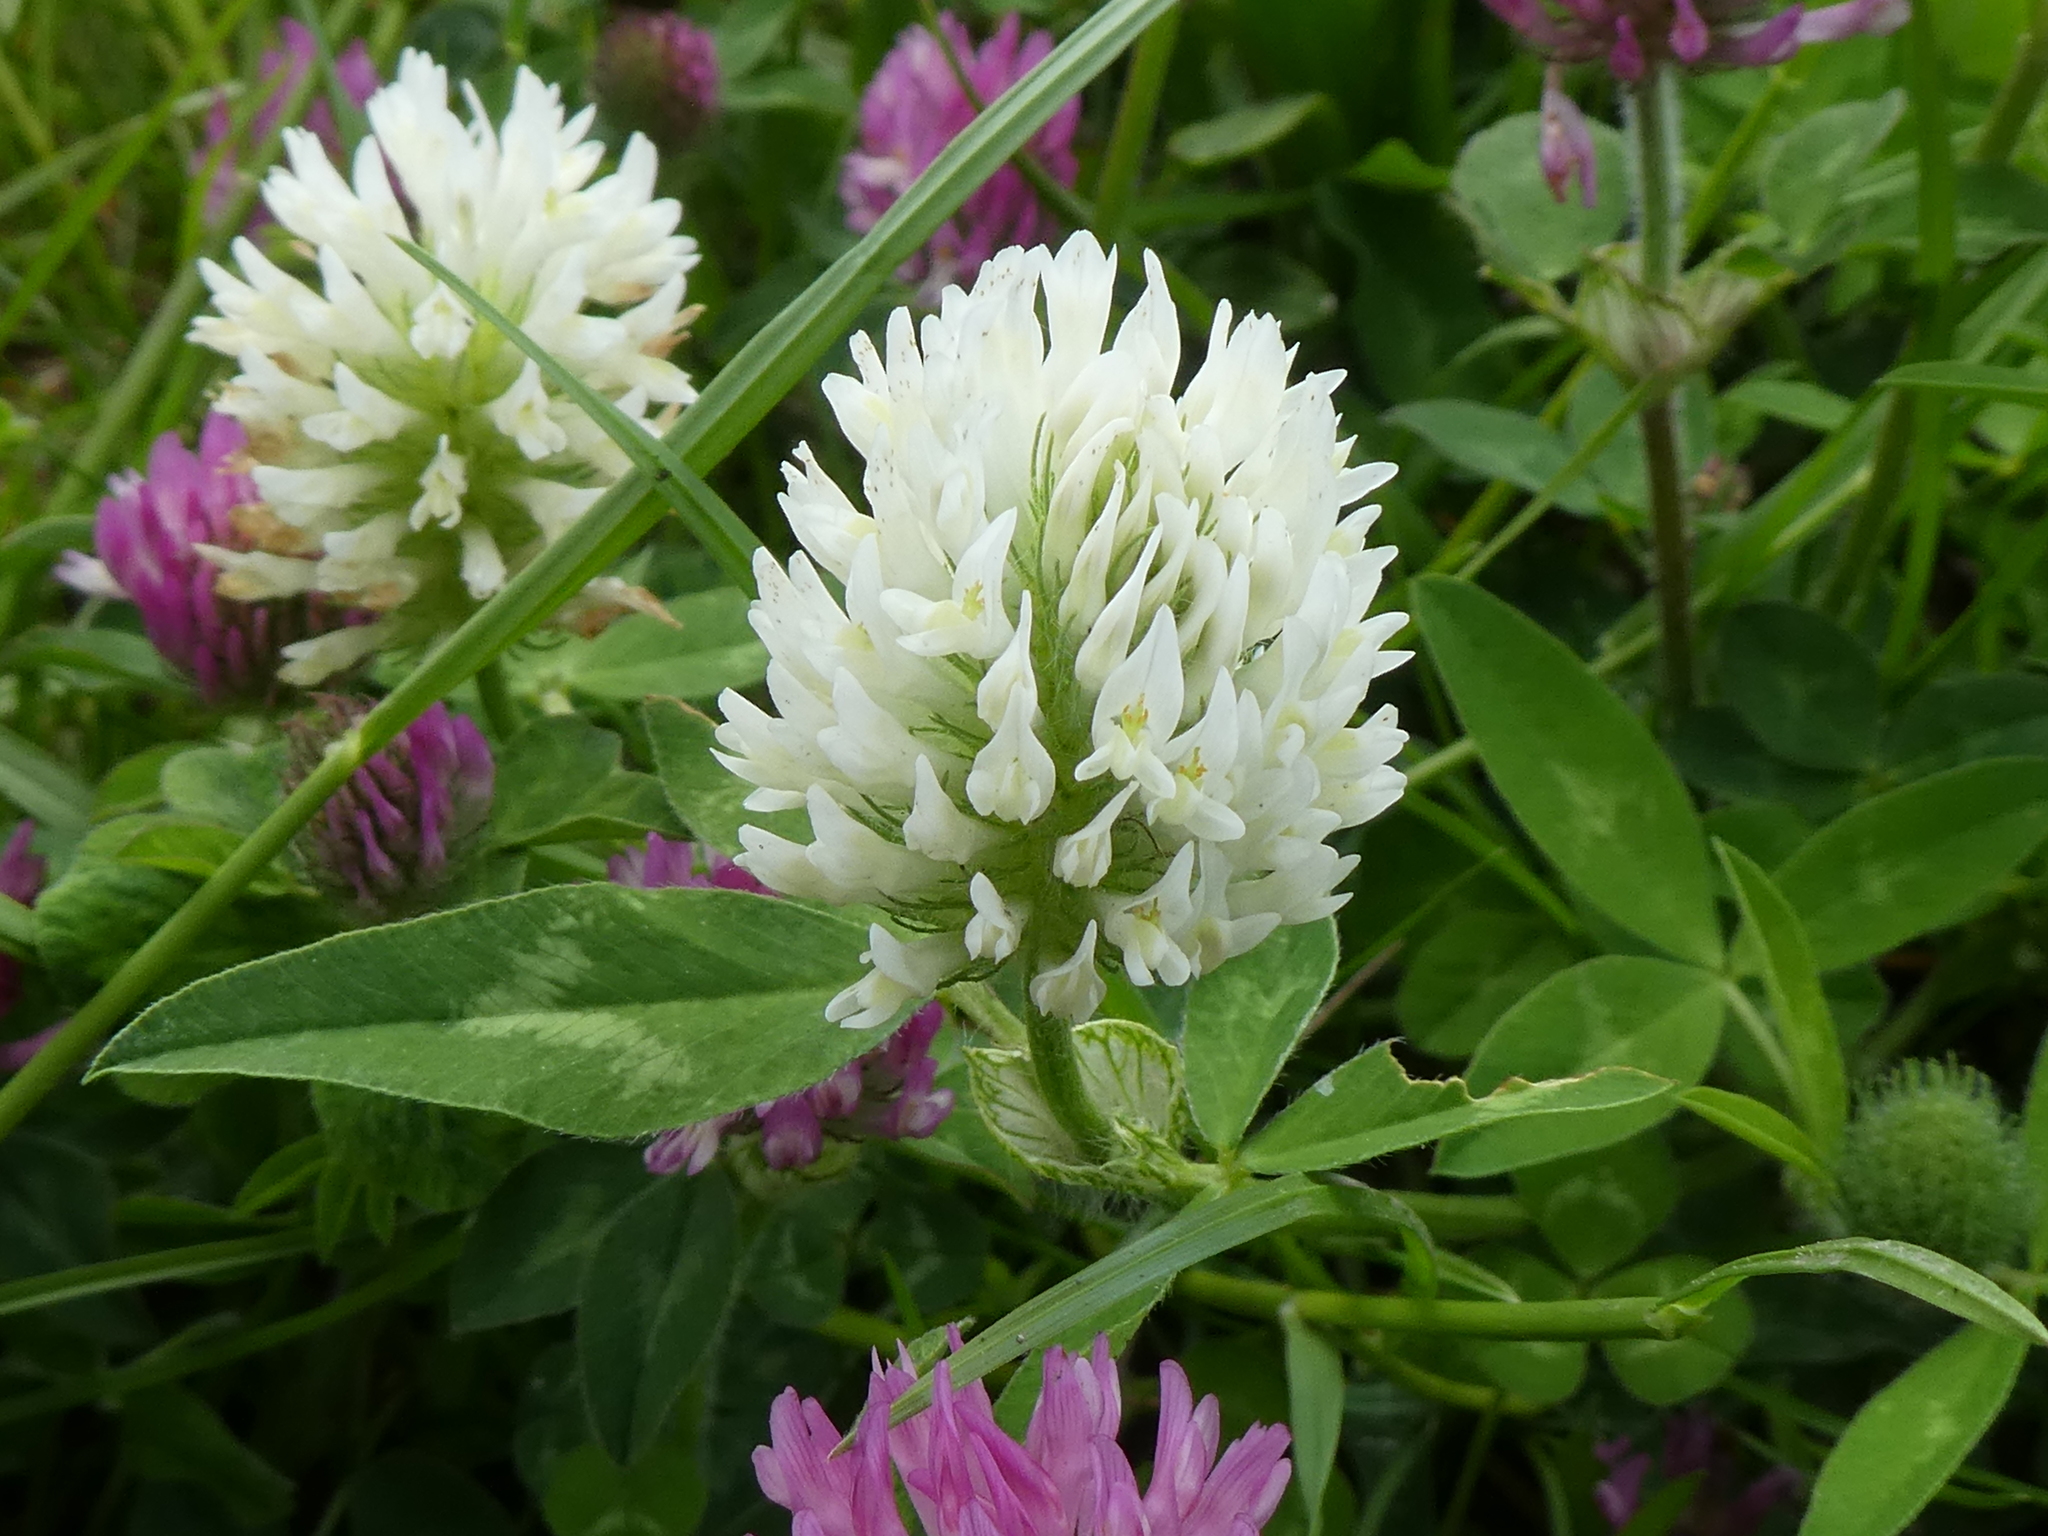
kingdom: Plantae
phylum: Tracheophyta
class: Magnoliopsida
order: Fabales
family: Fabaceae
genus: Trifolium
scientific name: Trifolium pratense
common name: Red clover
